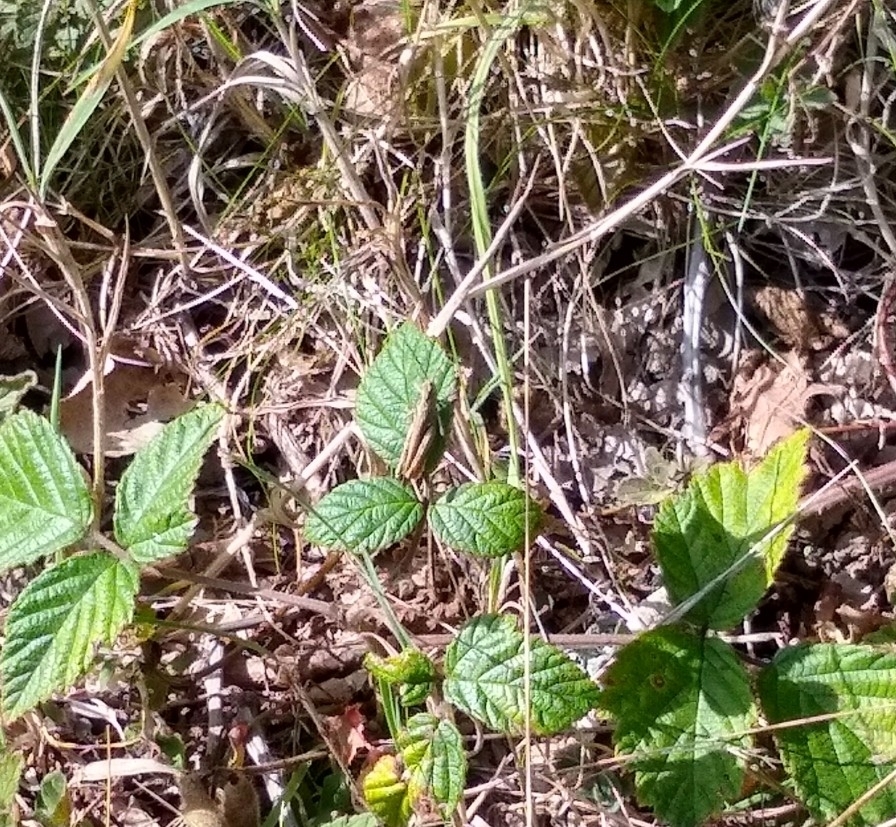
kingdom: Animalia
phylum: Arthropoda
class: Insecta
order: Orthoptera
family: Acrididae
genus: Chorthippus
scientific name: Chorthippus brunneus
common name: Field grasshopper
